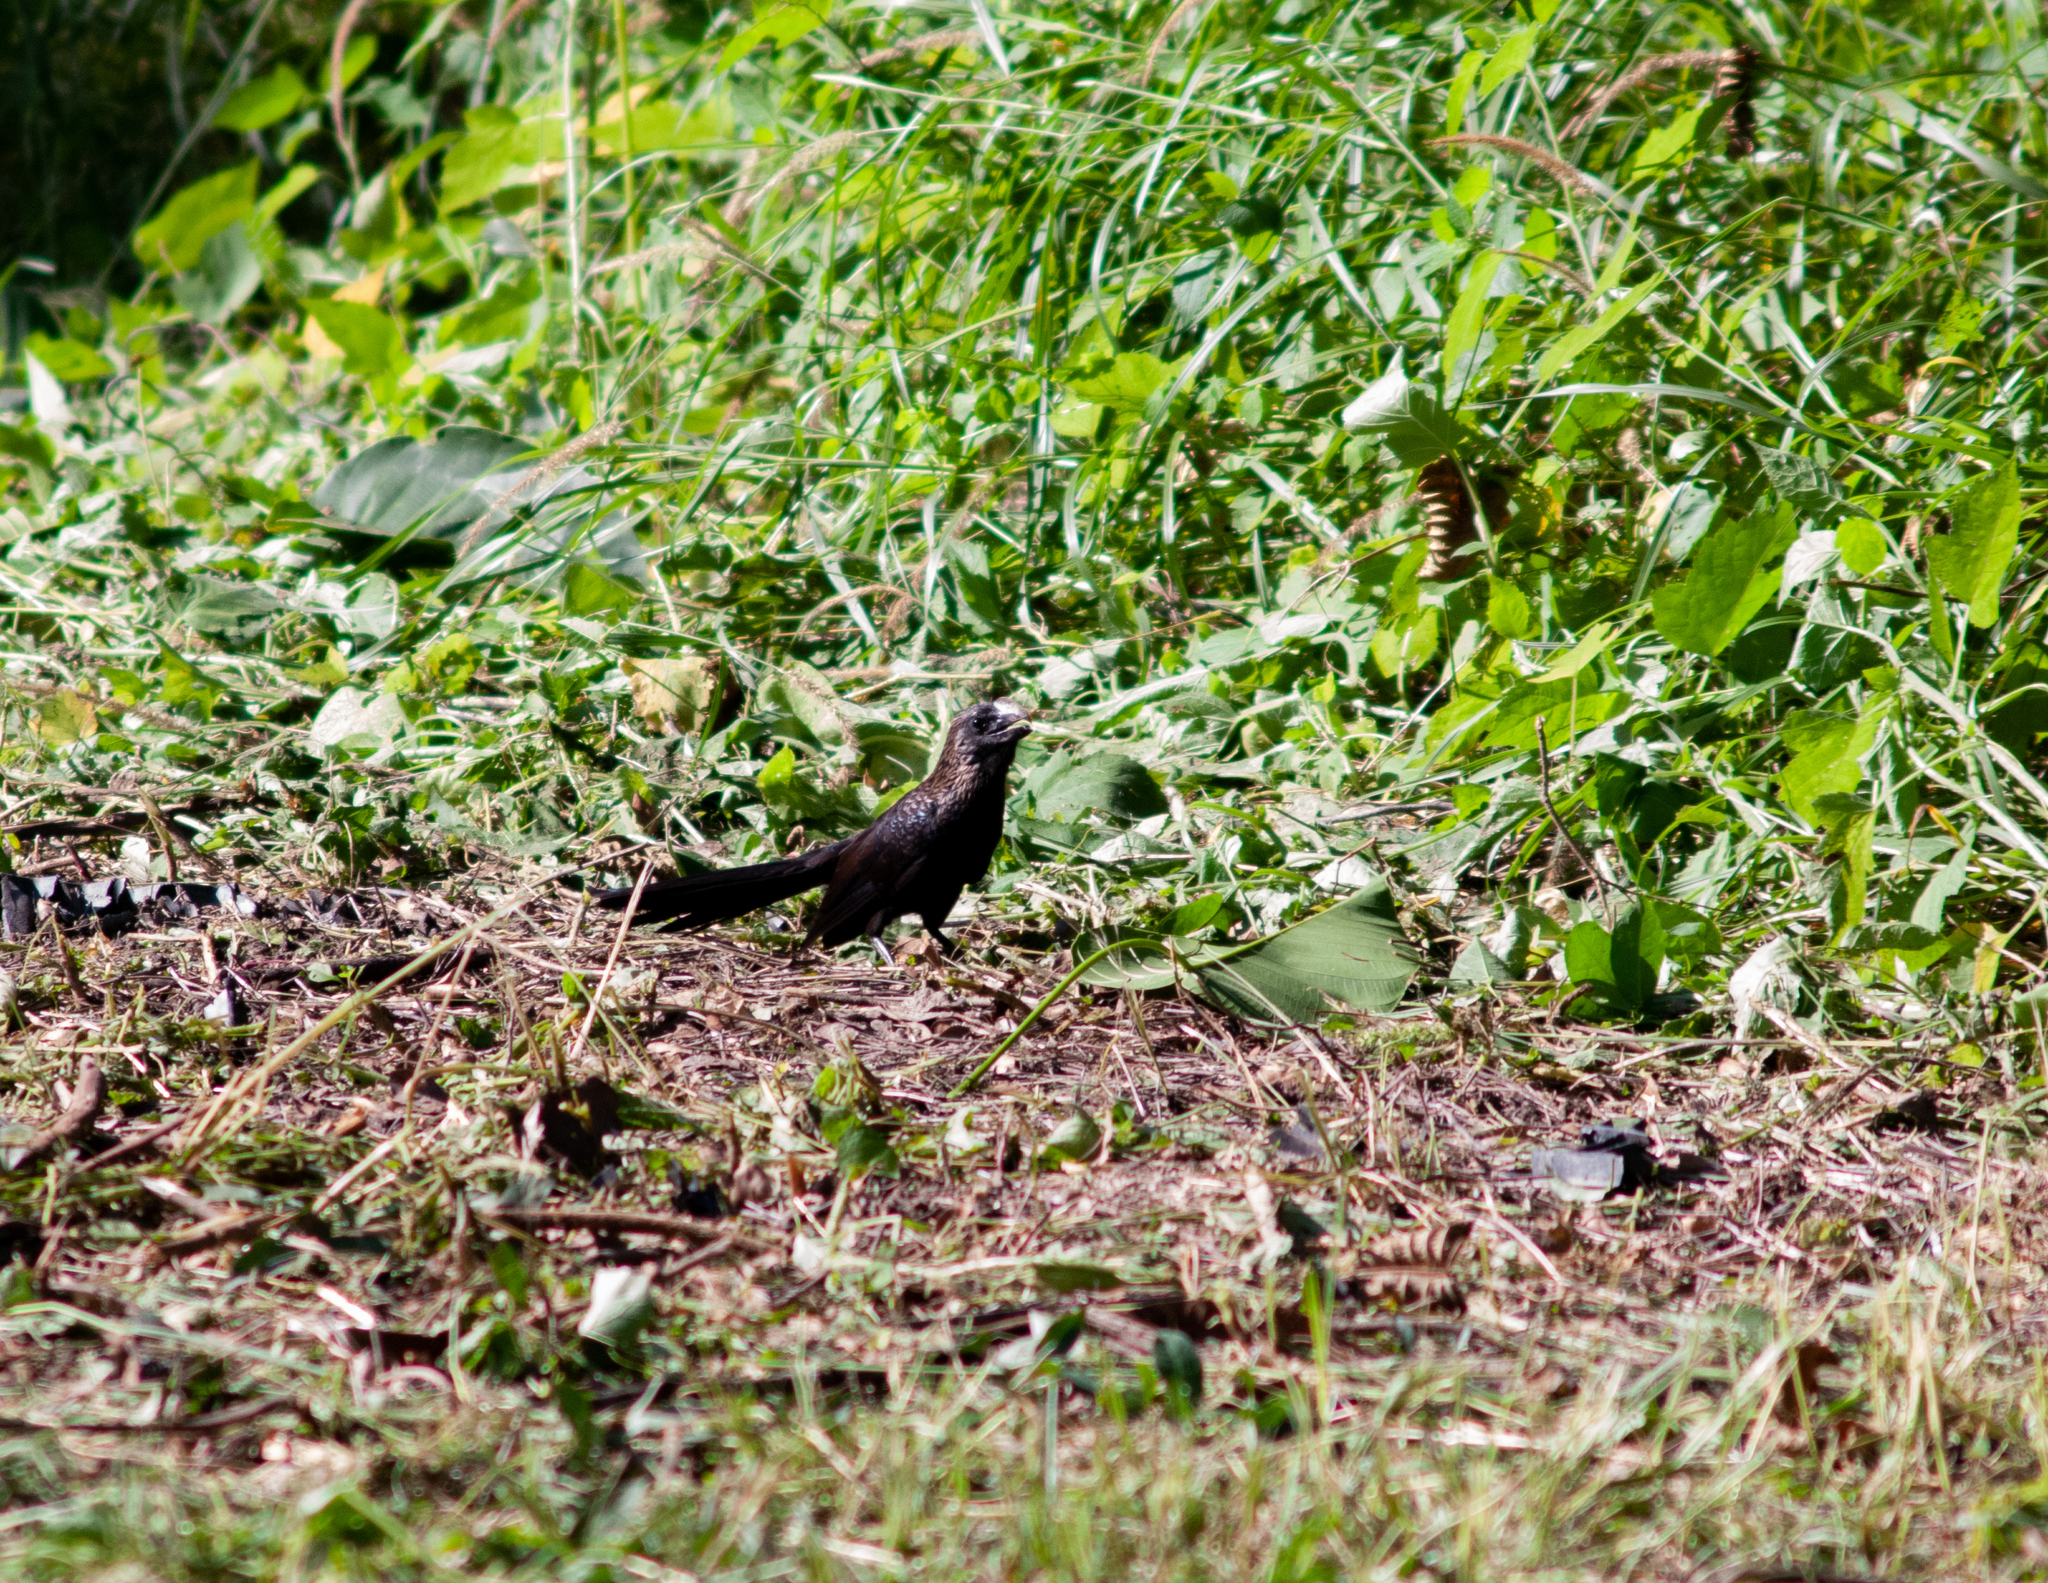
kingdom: Animalia
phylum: Chordata
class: Aves
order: Cuculiformes
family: Cuculidae
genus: Crotophaga
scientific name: Crotophaga ani
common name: Smooth-billed ani
